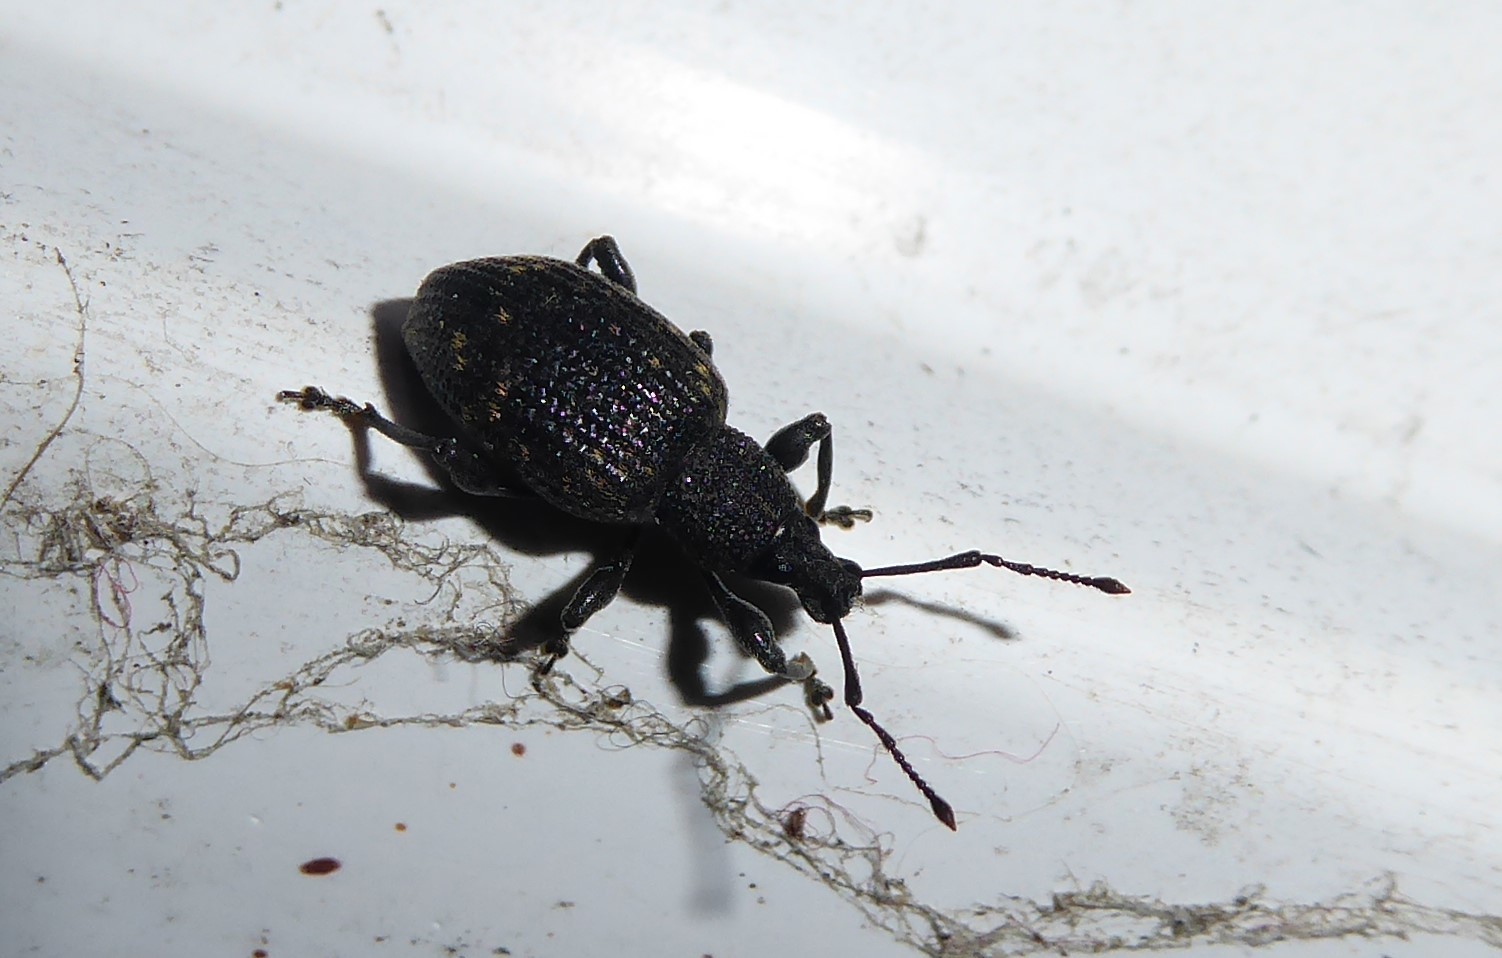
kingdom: Animalia
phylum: Arthropoda
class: Insecta
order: Coleoptera
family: Curculionidae
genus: Otiorhynchus
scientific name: Otiorhynchus sulcatus
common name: Black vine weevil
